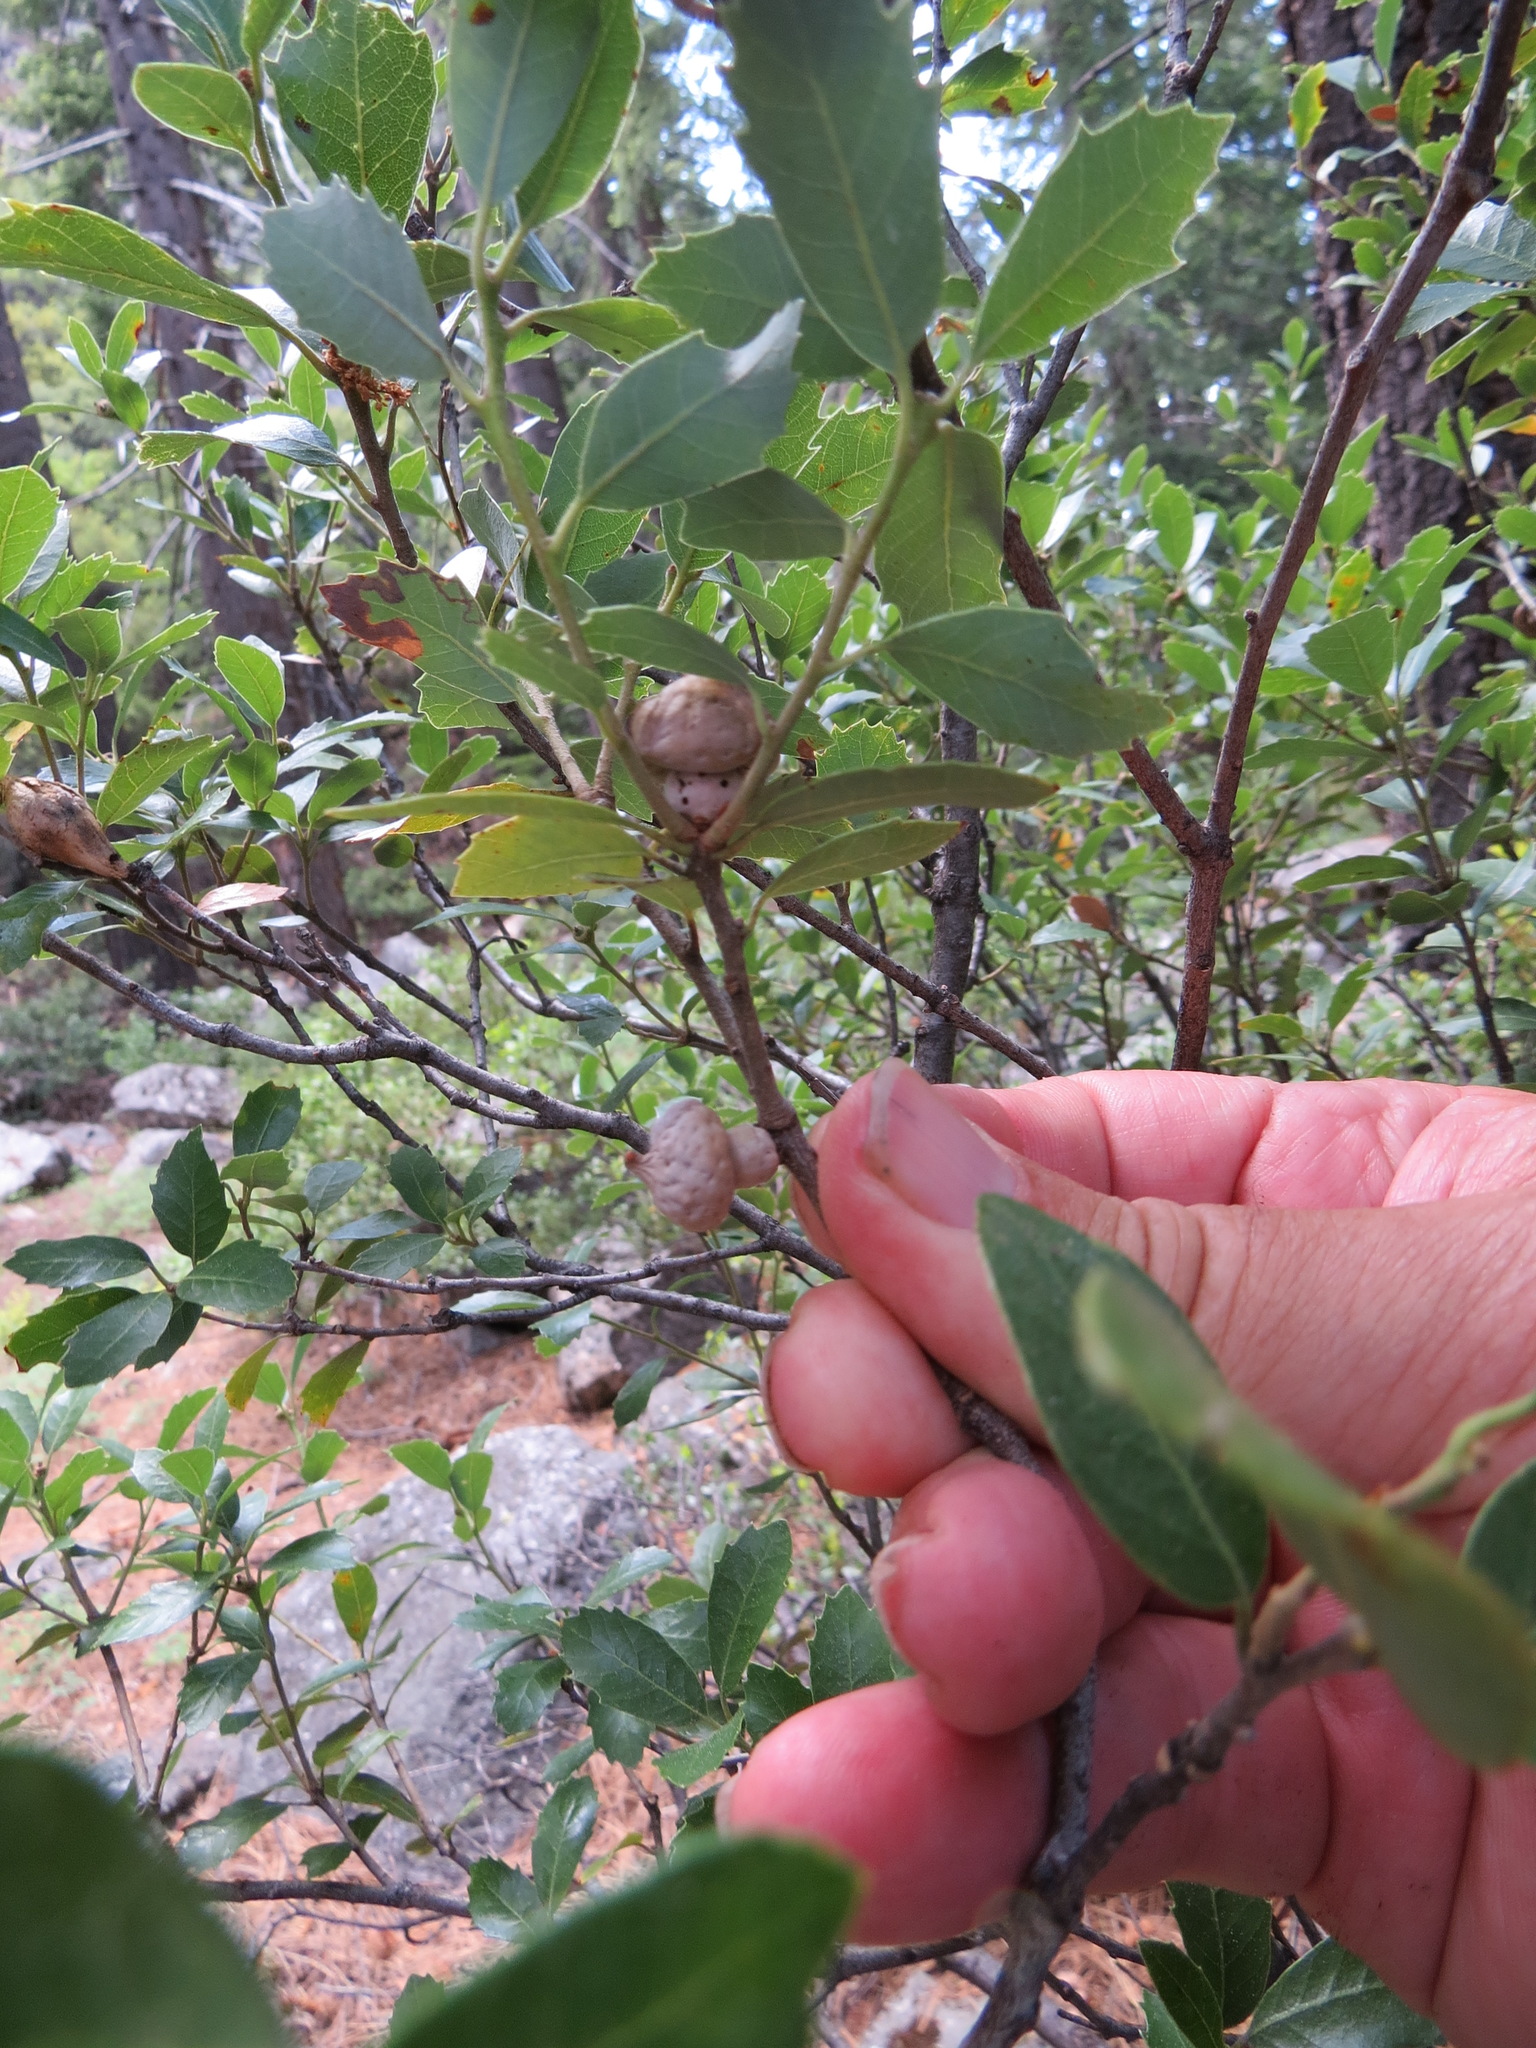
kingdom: Animalia
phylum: Arthropoda
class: Insecta
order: Hymenoptera
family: Cynipidae
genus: Heteroecus
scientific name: Heteroecus
